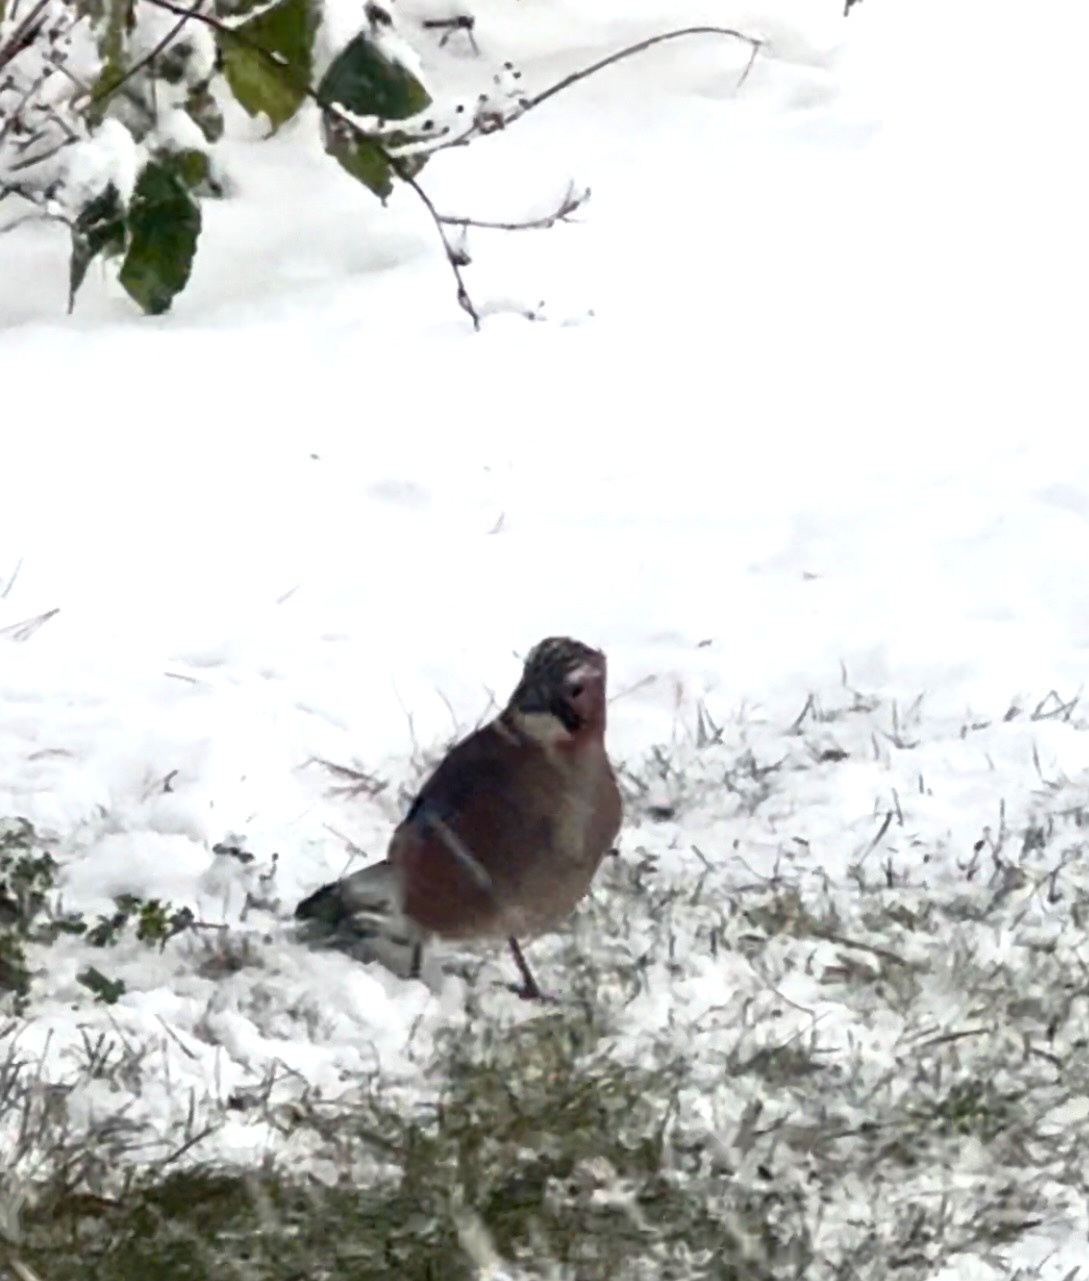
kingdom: Animalia
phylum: Chordata
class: Aves
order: Passeriformes
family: Corvidae
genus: Garrulus
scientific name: Garrulus glandarius
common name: Eurasian jay
